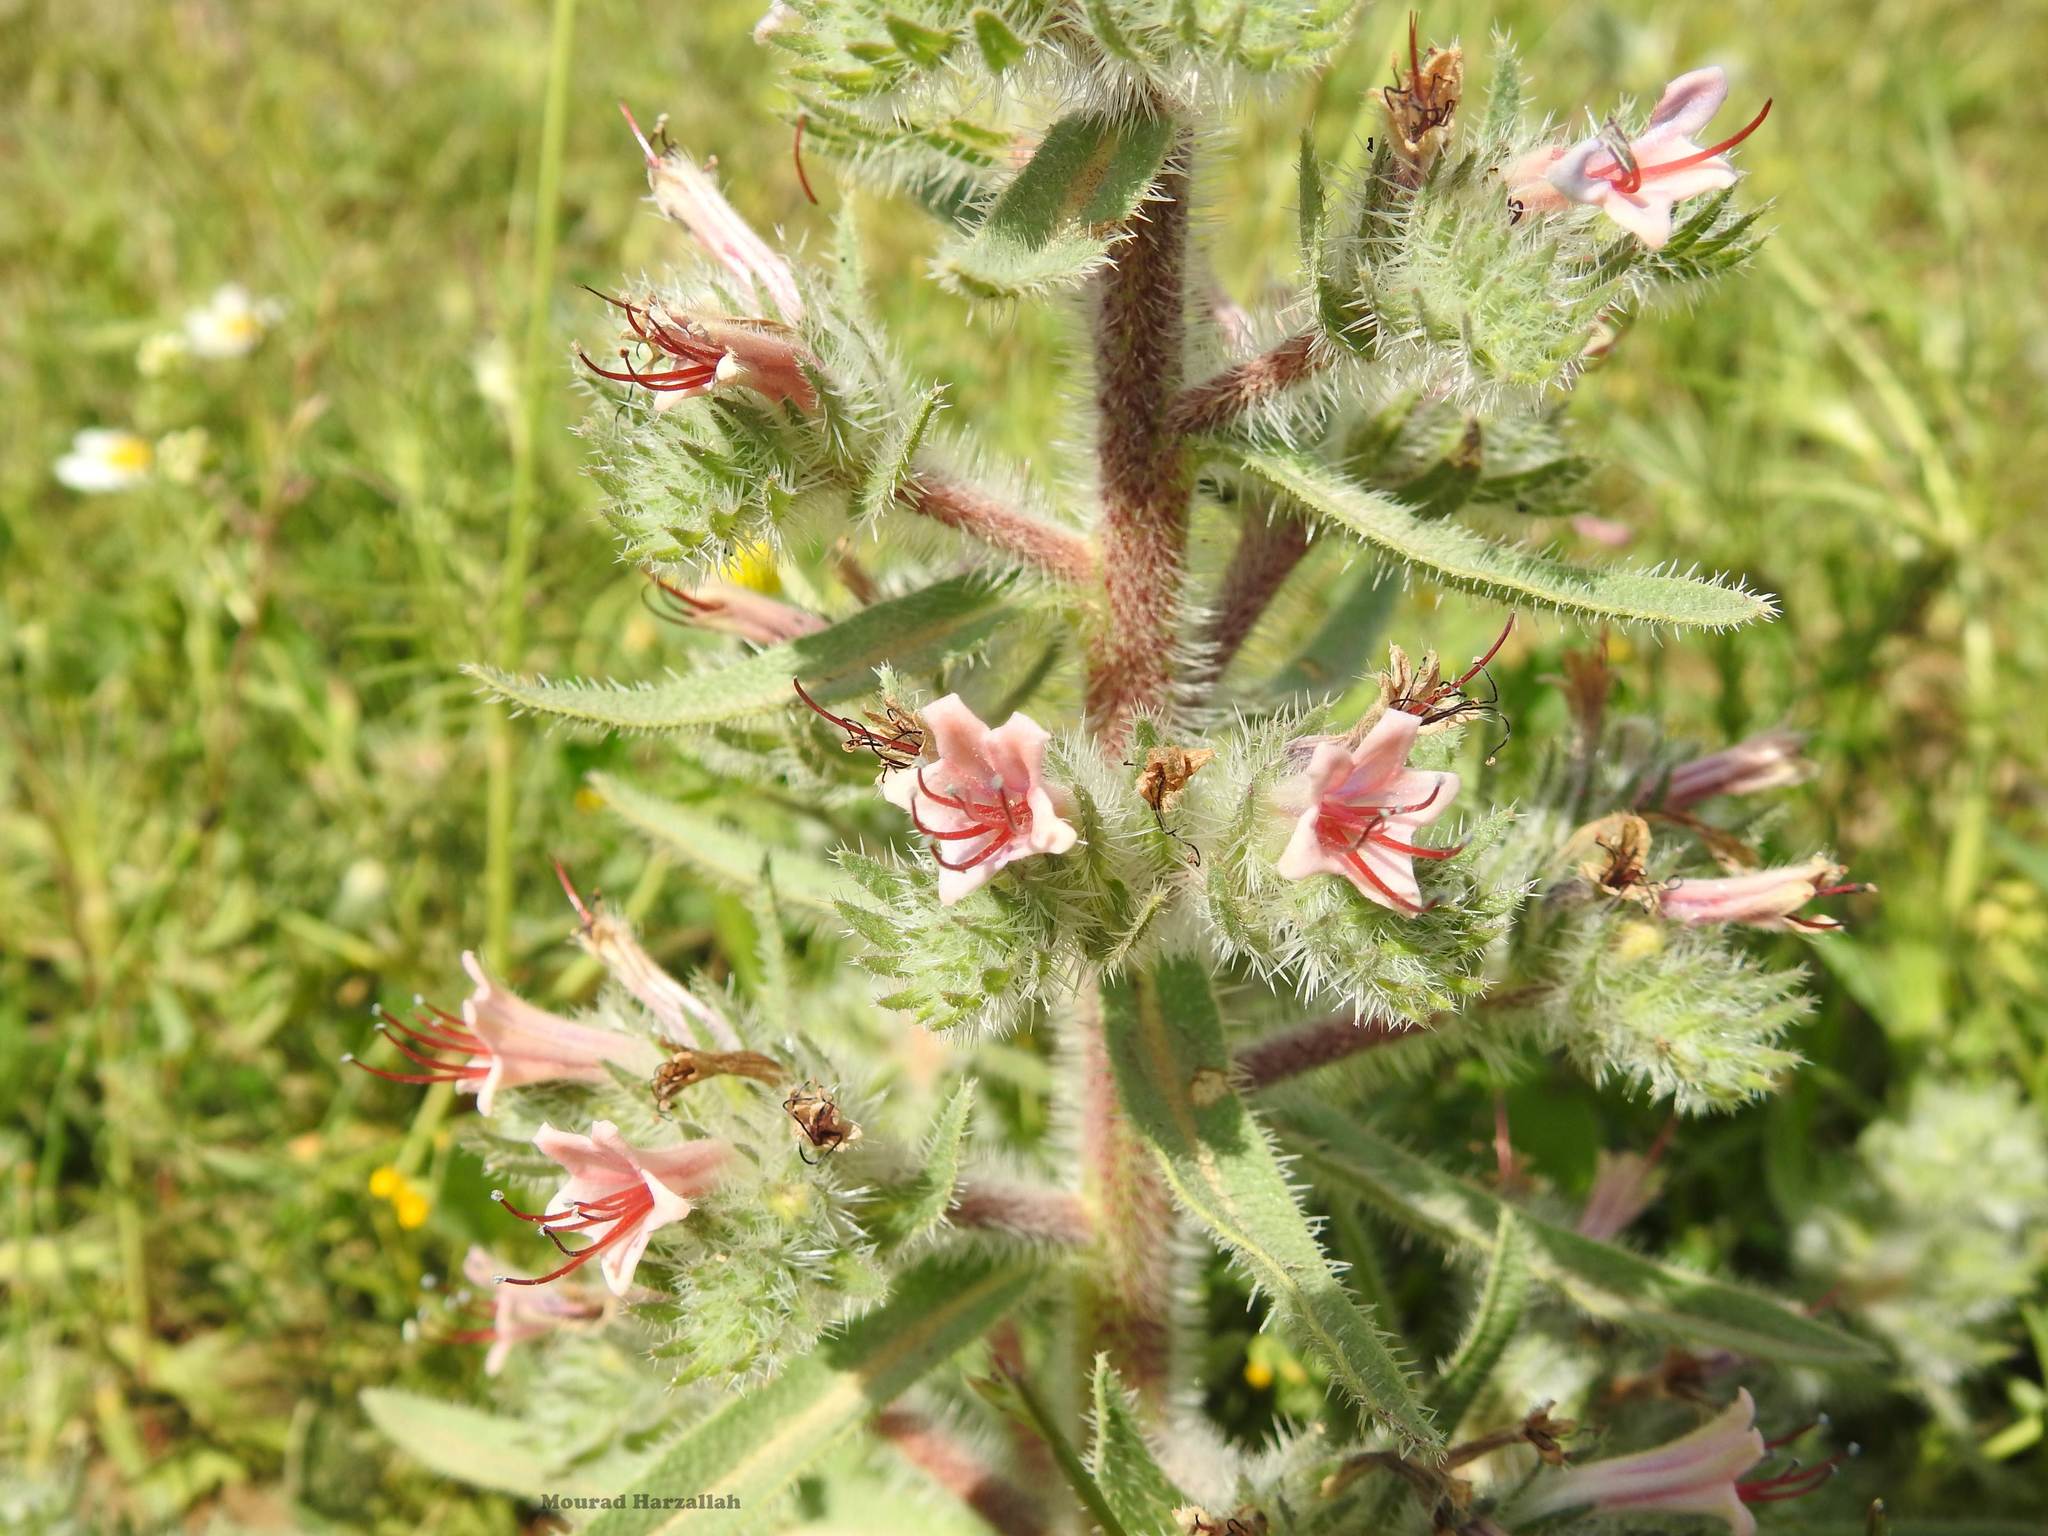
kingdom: Plantae
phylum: Tracheophyta
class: Magnoliopsida
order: Boraginales
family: Boraginaceae
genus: Echium
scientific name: Echium asperrimum
